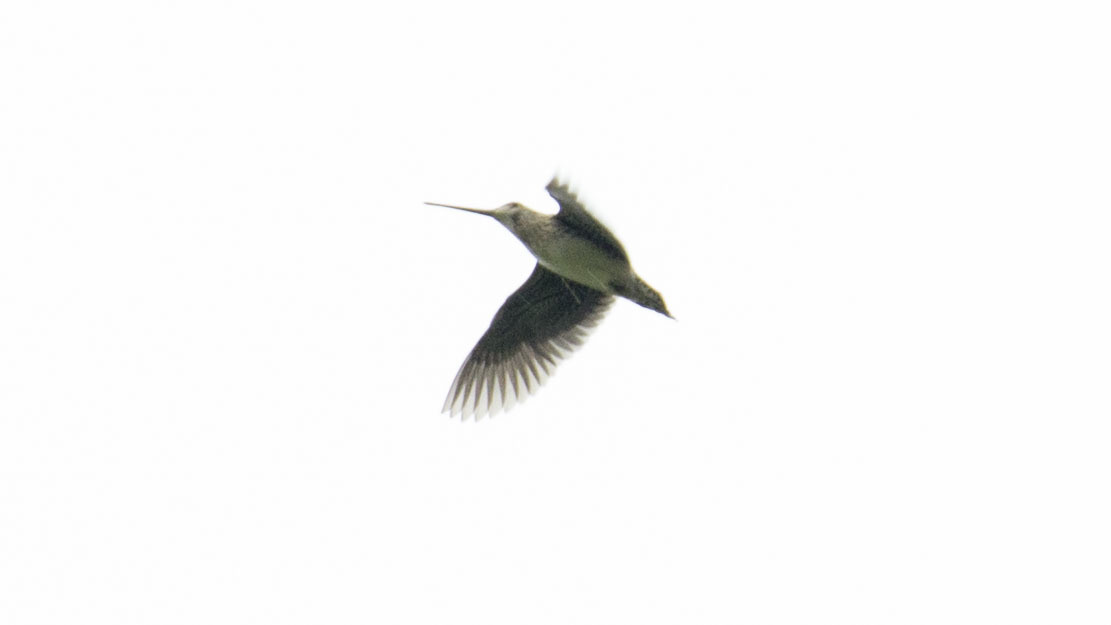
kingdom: Animalia
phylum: Chordata
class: Aves
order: Charadriiformes
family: Scolopacidae
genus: Gallinago
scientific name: Gallinago nobilis
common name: Noble snipe
